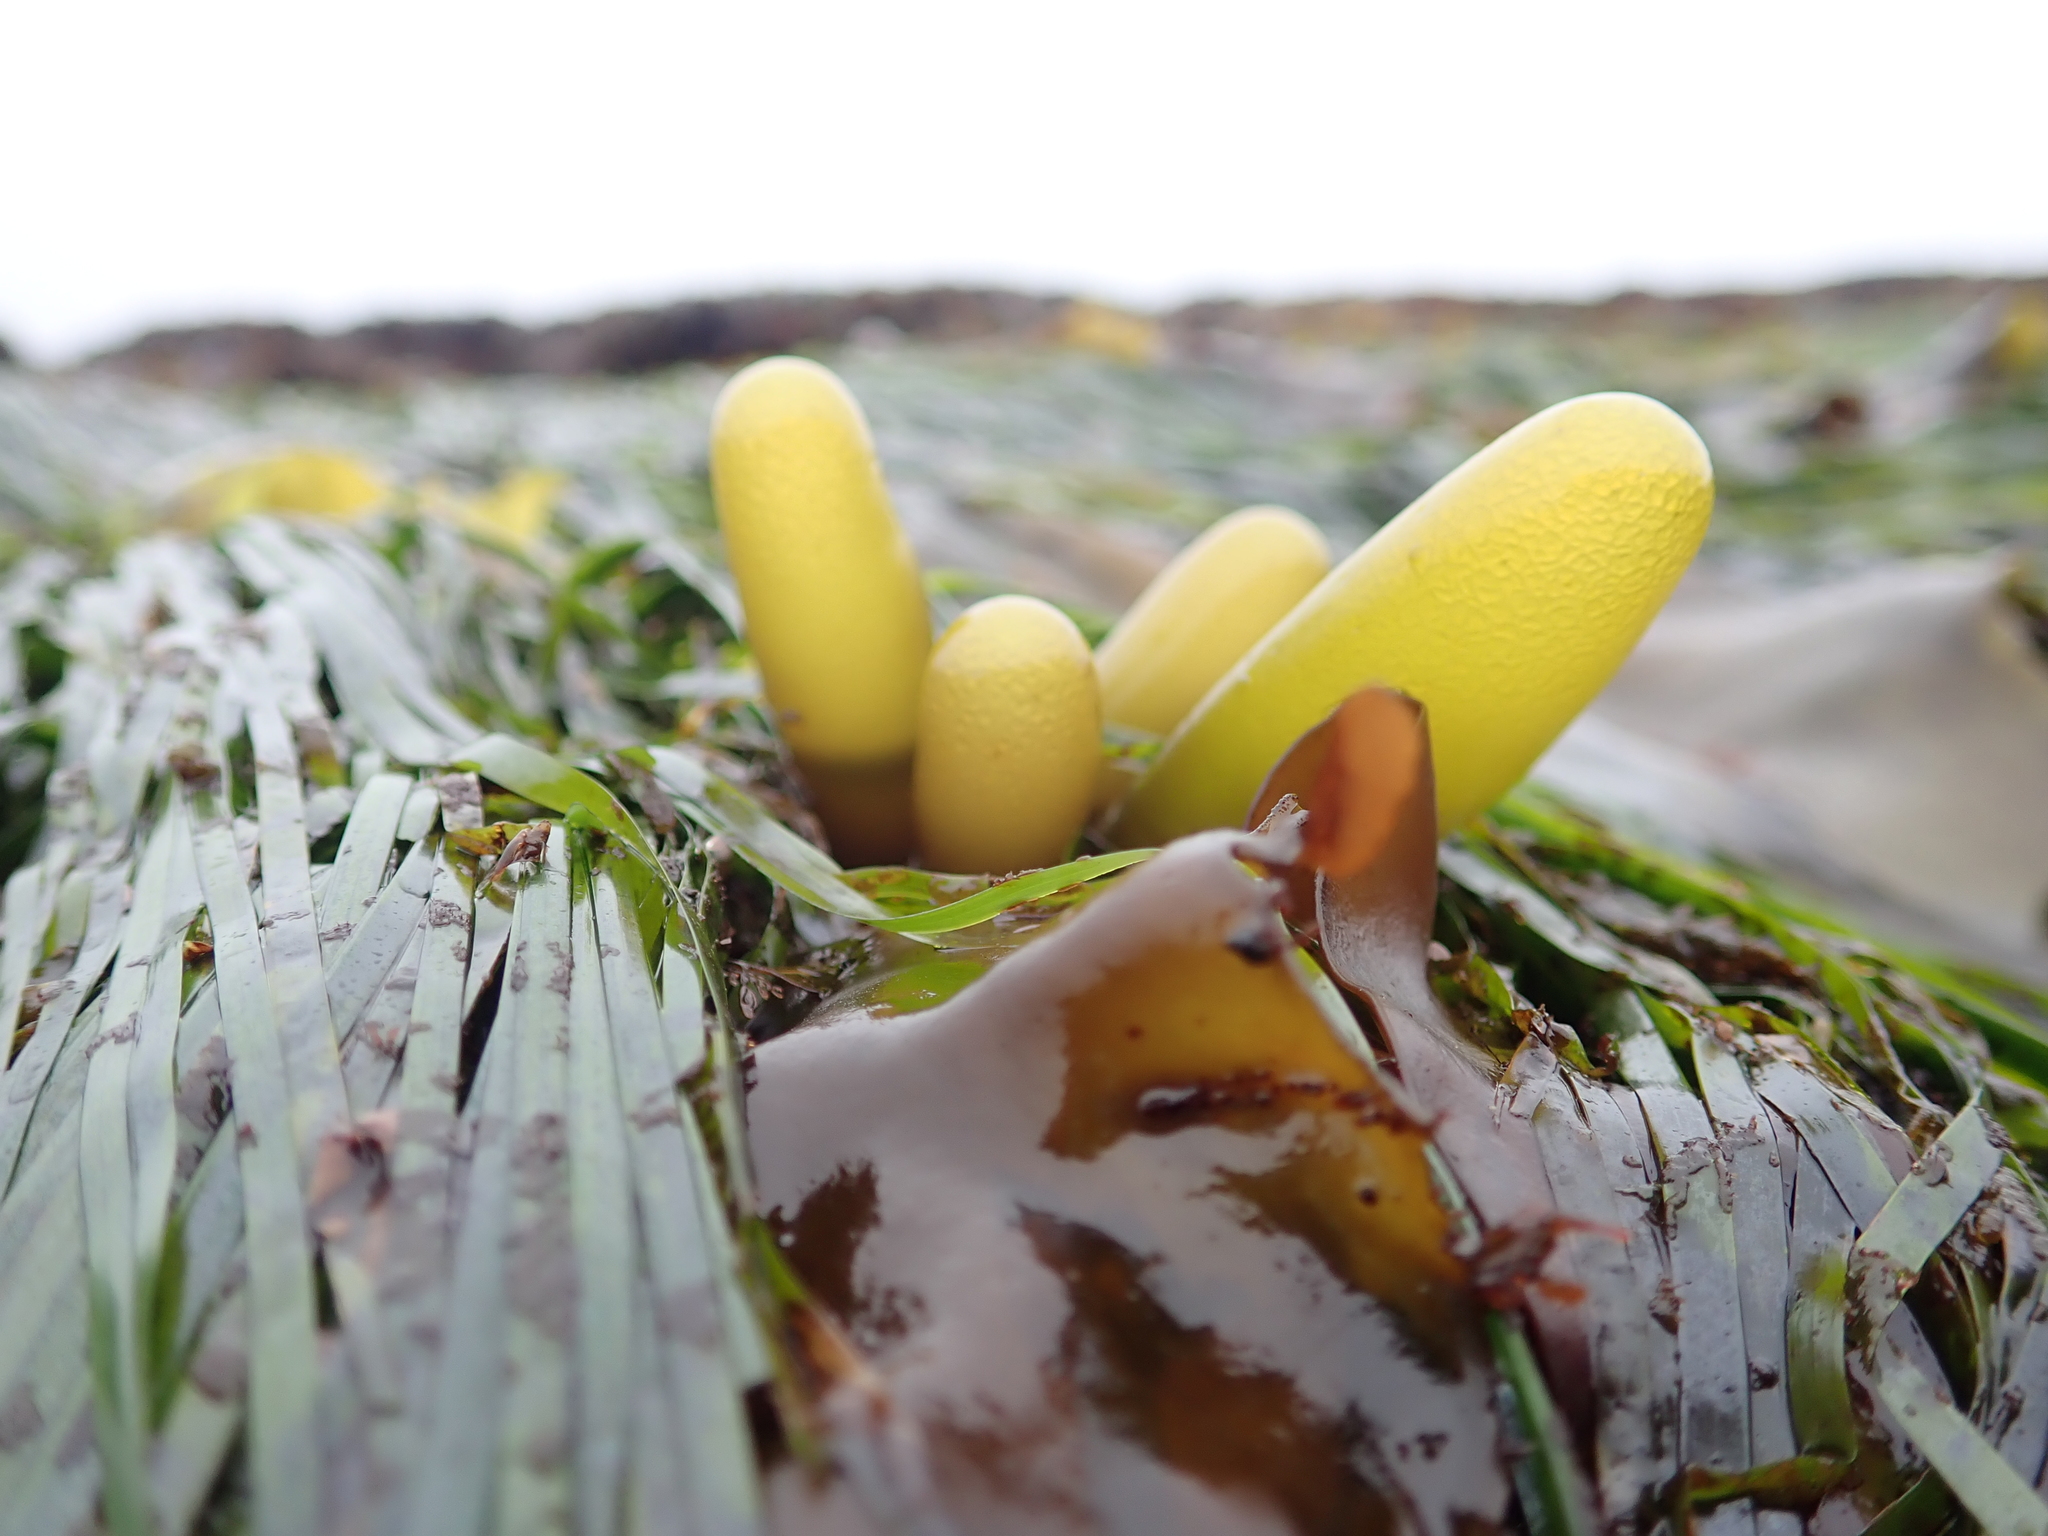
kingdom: Plantae
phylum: Rhodophyta
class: Florideophyceae
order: Palmariales
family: Palmariaceae
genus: Halosaccion
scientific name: Halosaccion glandiforme
